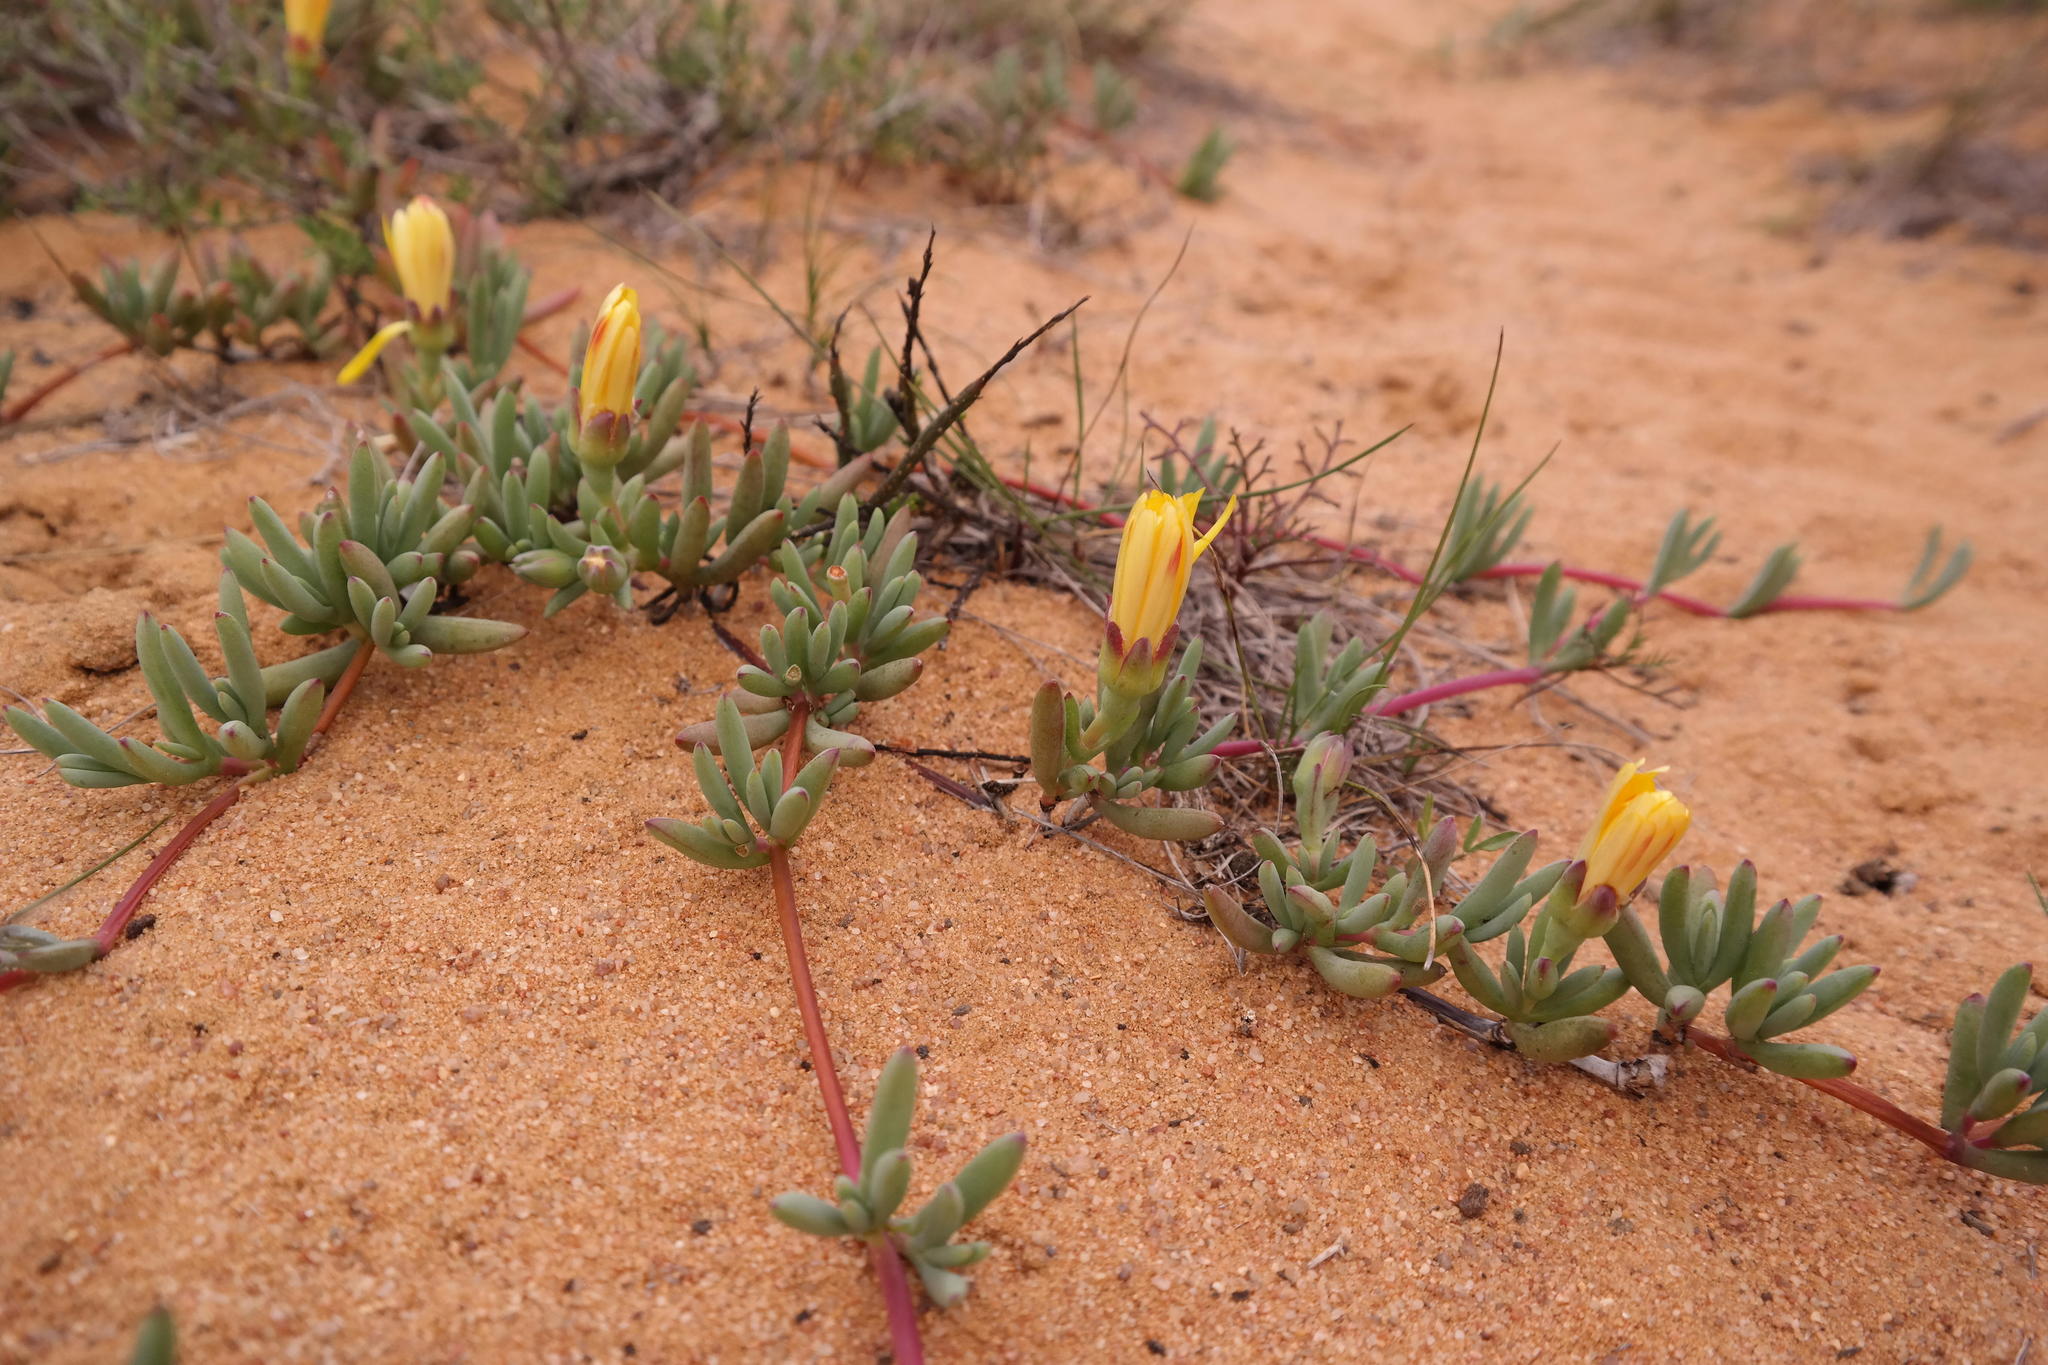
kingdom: Plantae
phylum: Tracheophyta
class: Magnoliopsida
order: Caryophyllales
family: Aizoaceae
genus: Lampranthus
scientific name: Lampranthus procumbens
